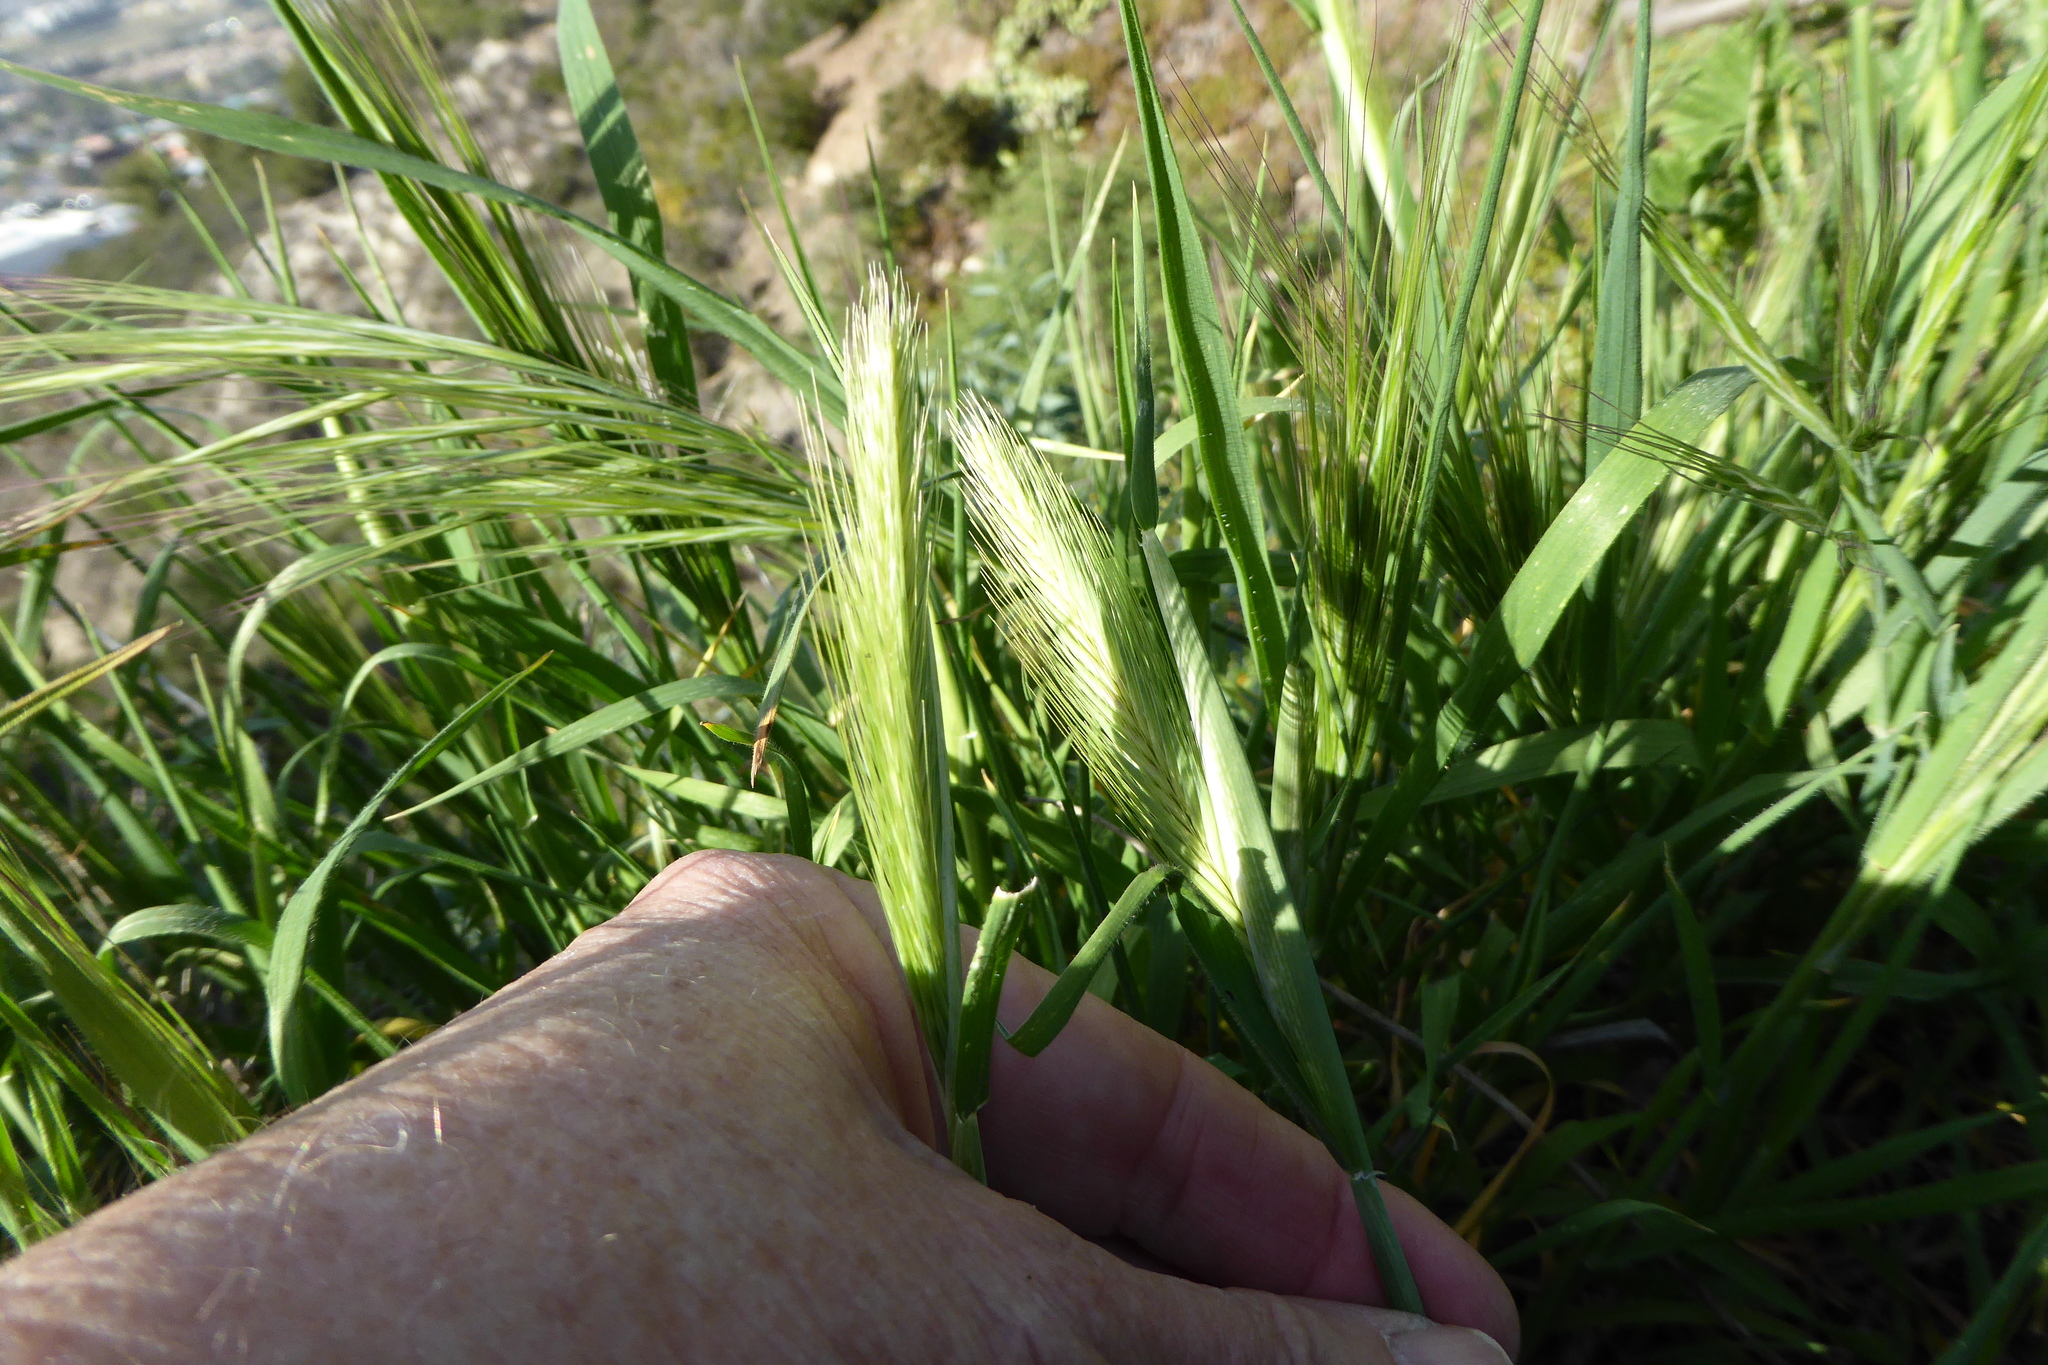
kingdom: Plantae
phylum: Tracheophyta
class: Liliopsida
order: Poales
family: Poaceae
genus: Hordeum
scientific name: Hordeum murinum
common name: Wall barley
